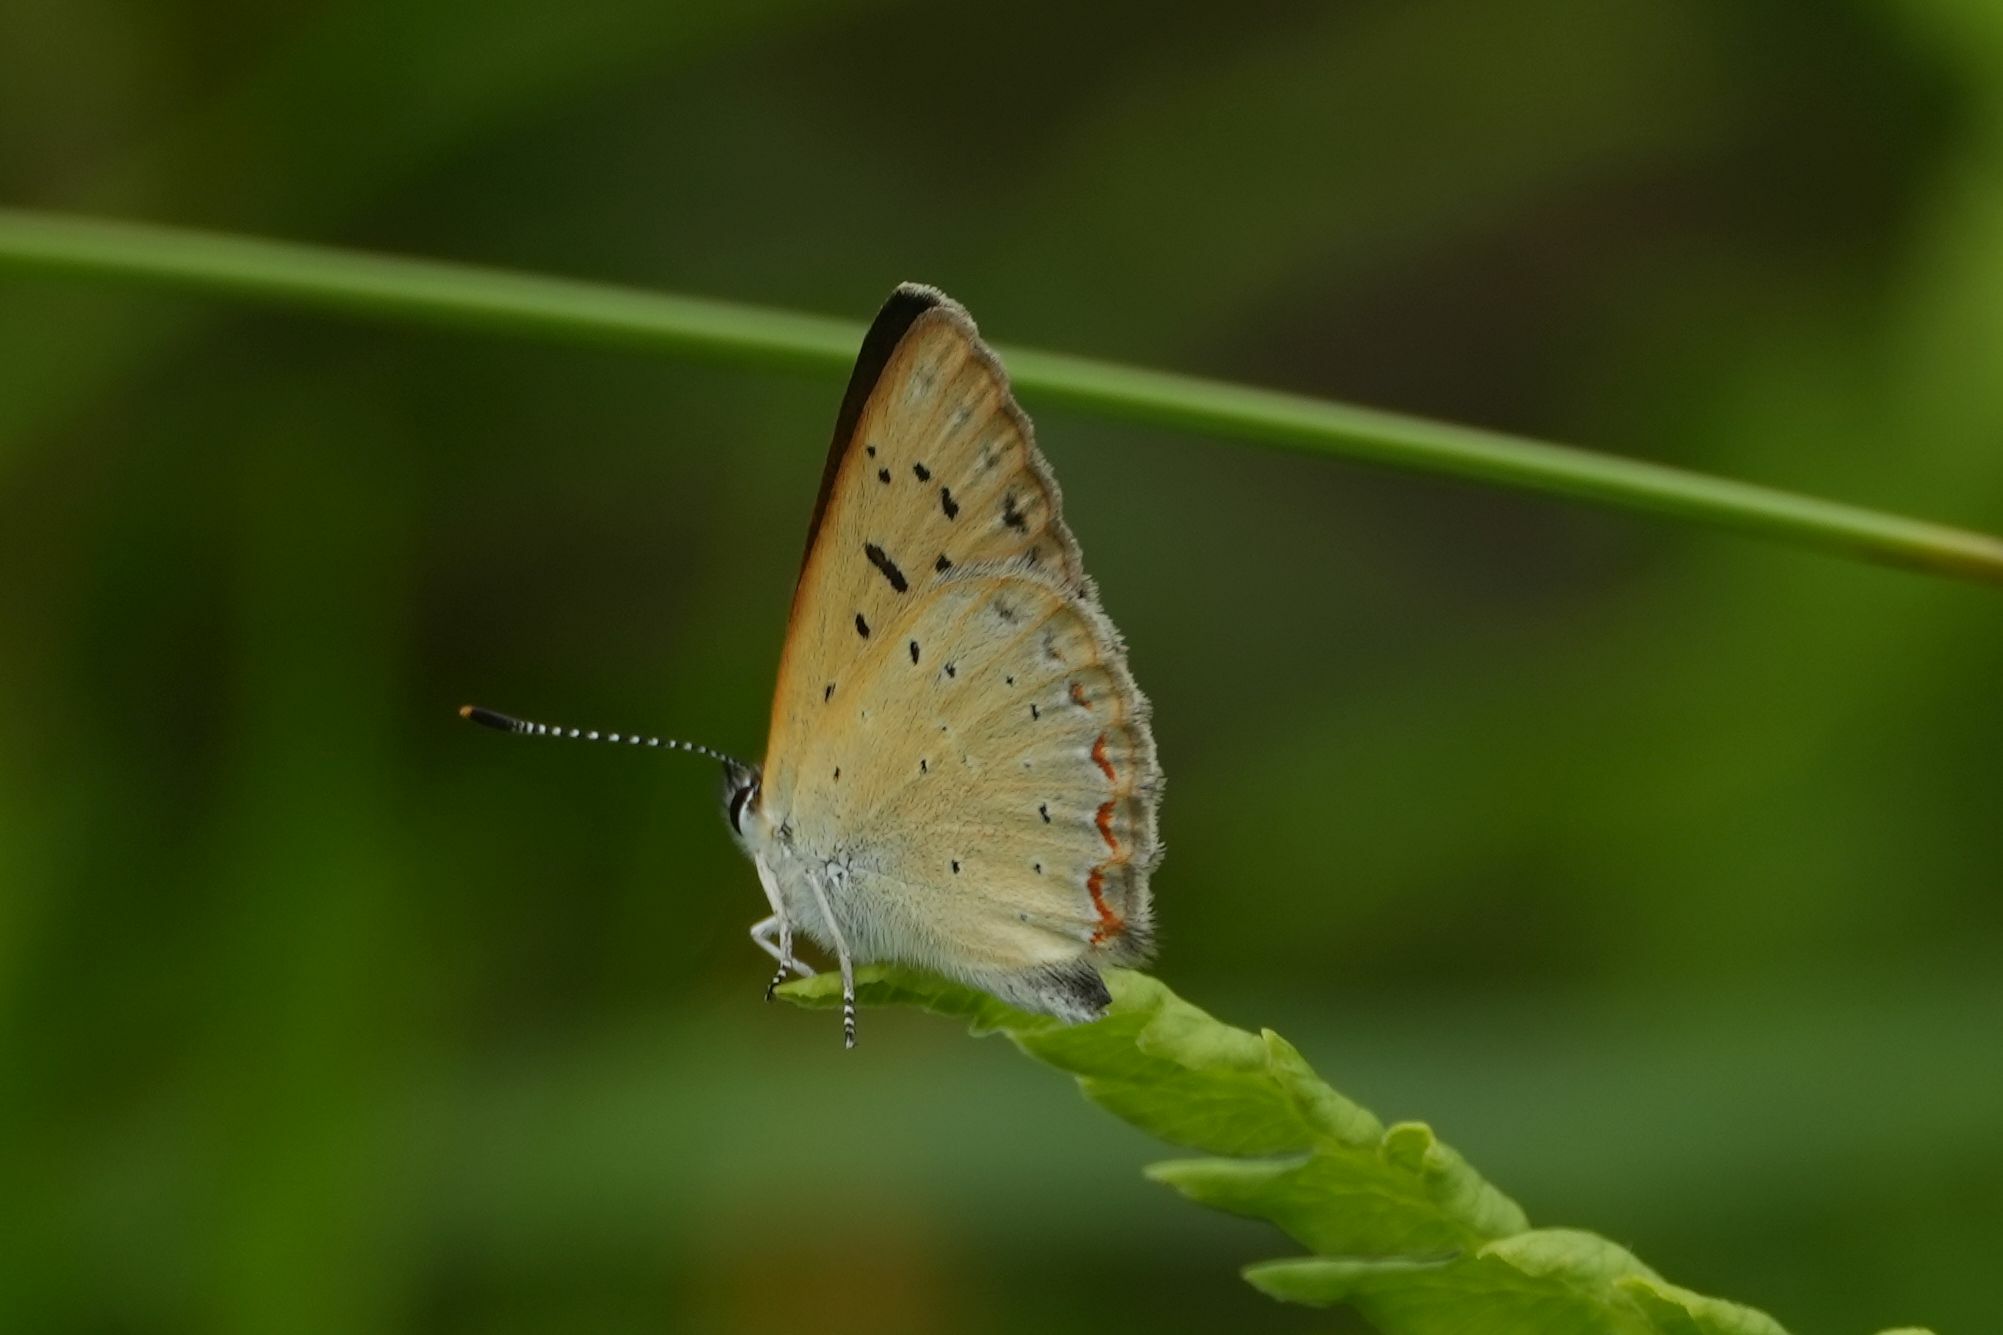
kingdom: Animalia
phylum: Arthropoda
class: Insecta
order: Lepidoptera
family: Lycaenidae
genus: Tharsalea
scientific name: Tharsalea epixanthe
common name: Bog copper
